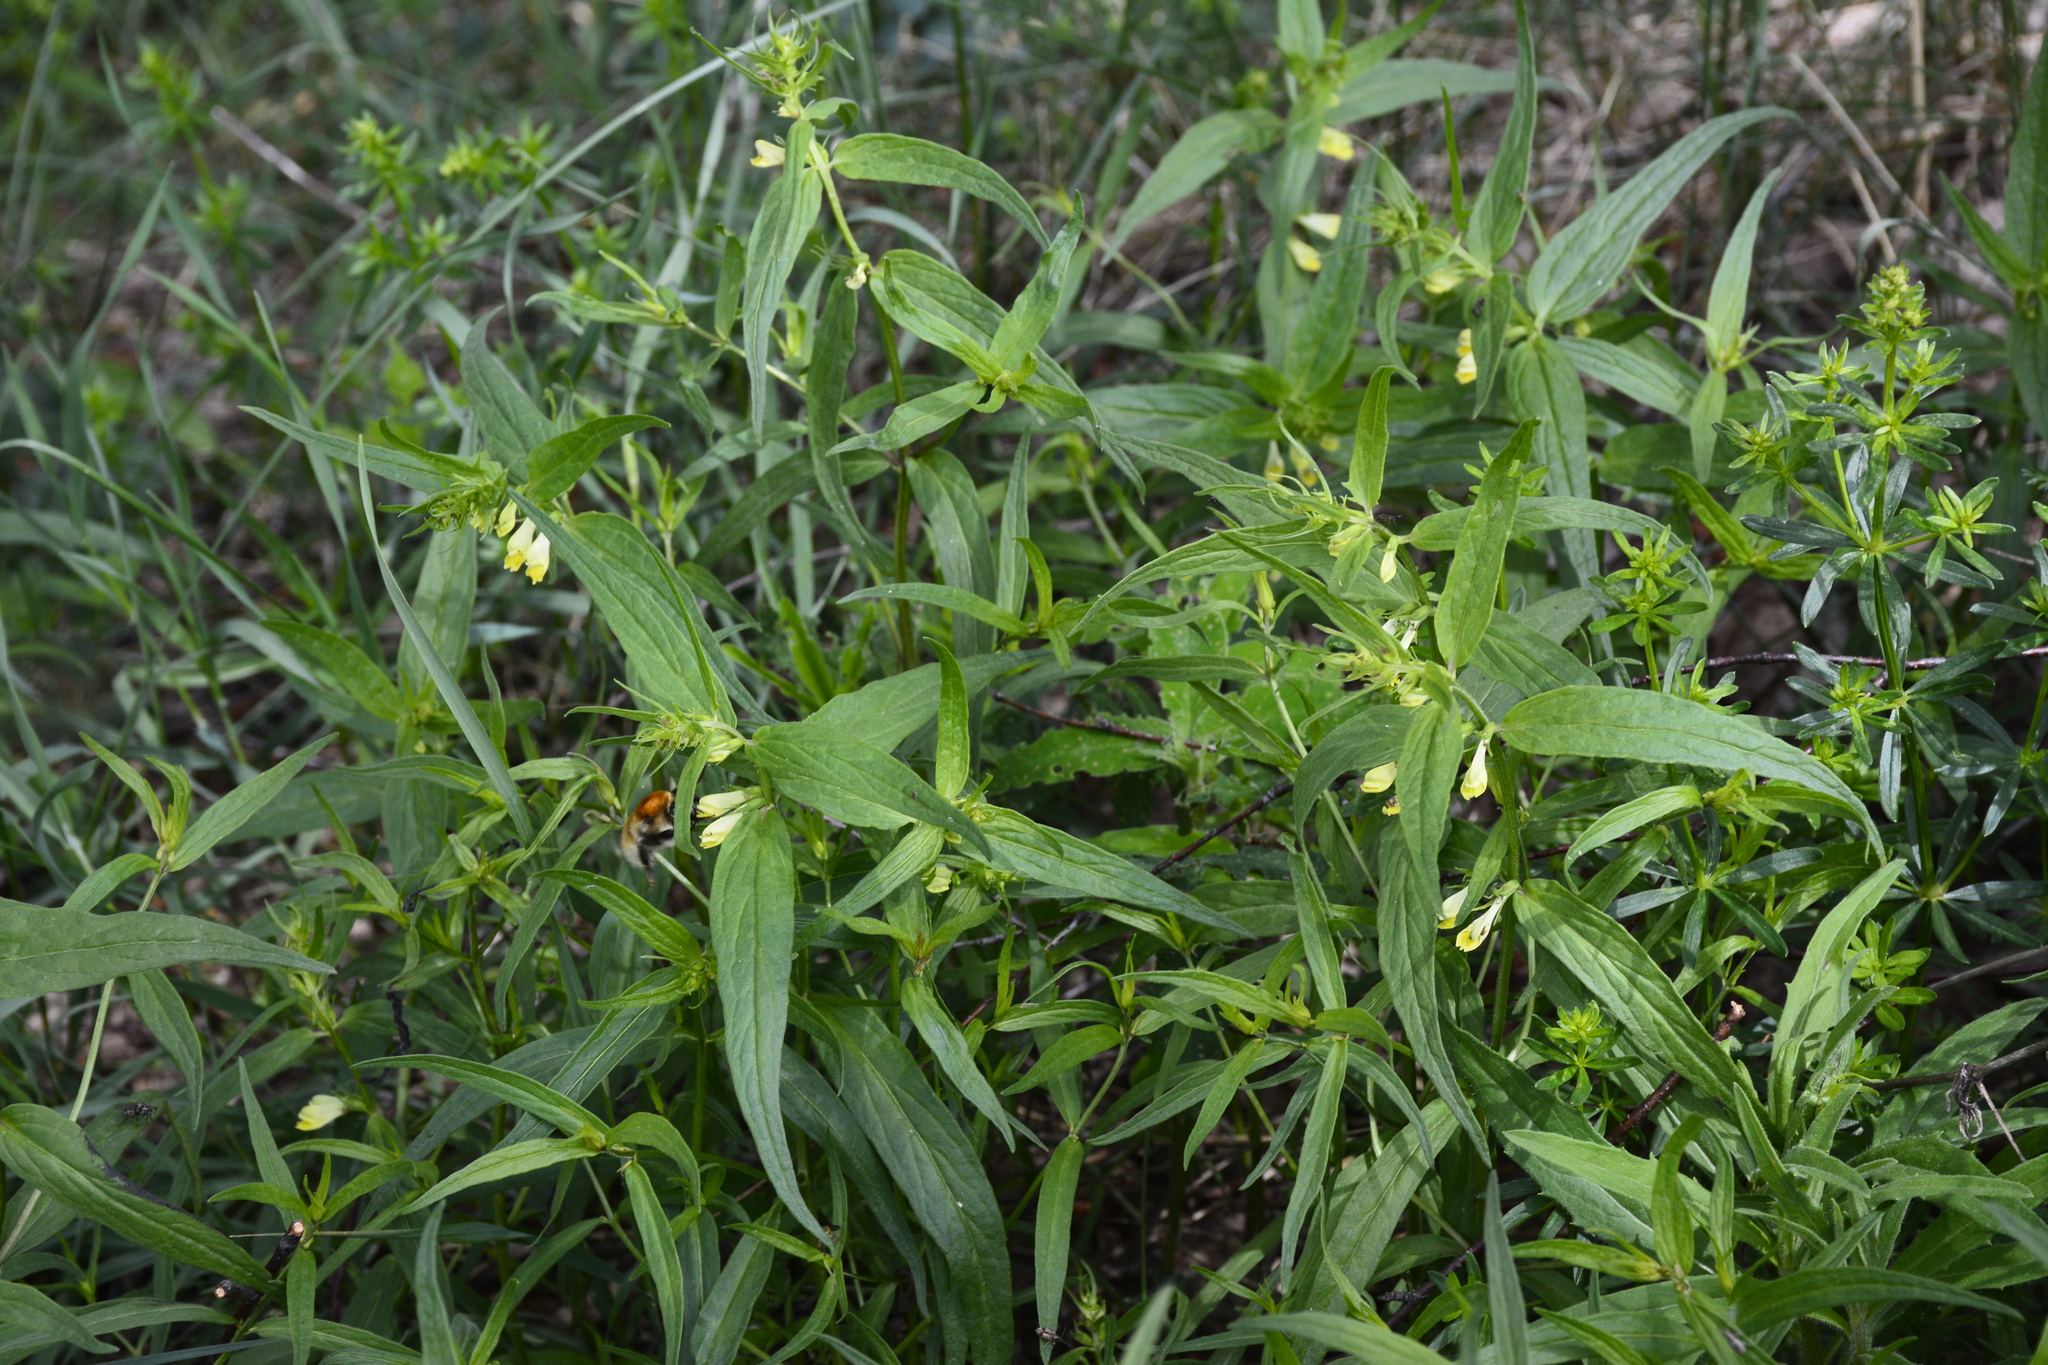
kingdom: Plantae
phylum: Tracheophyta
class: Magnoliopsida
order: Lamiales
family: Orobanchaceae
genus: Melampyrum
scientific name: Melampyrum pratense
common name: Common cow-wheat
